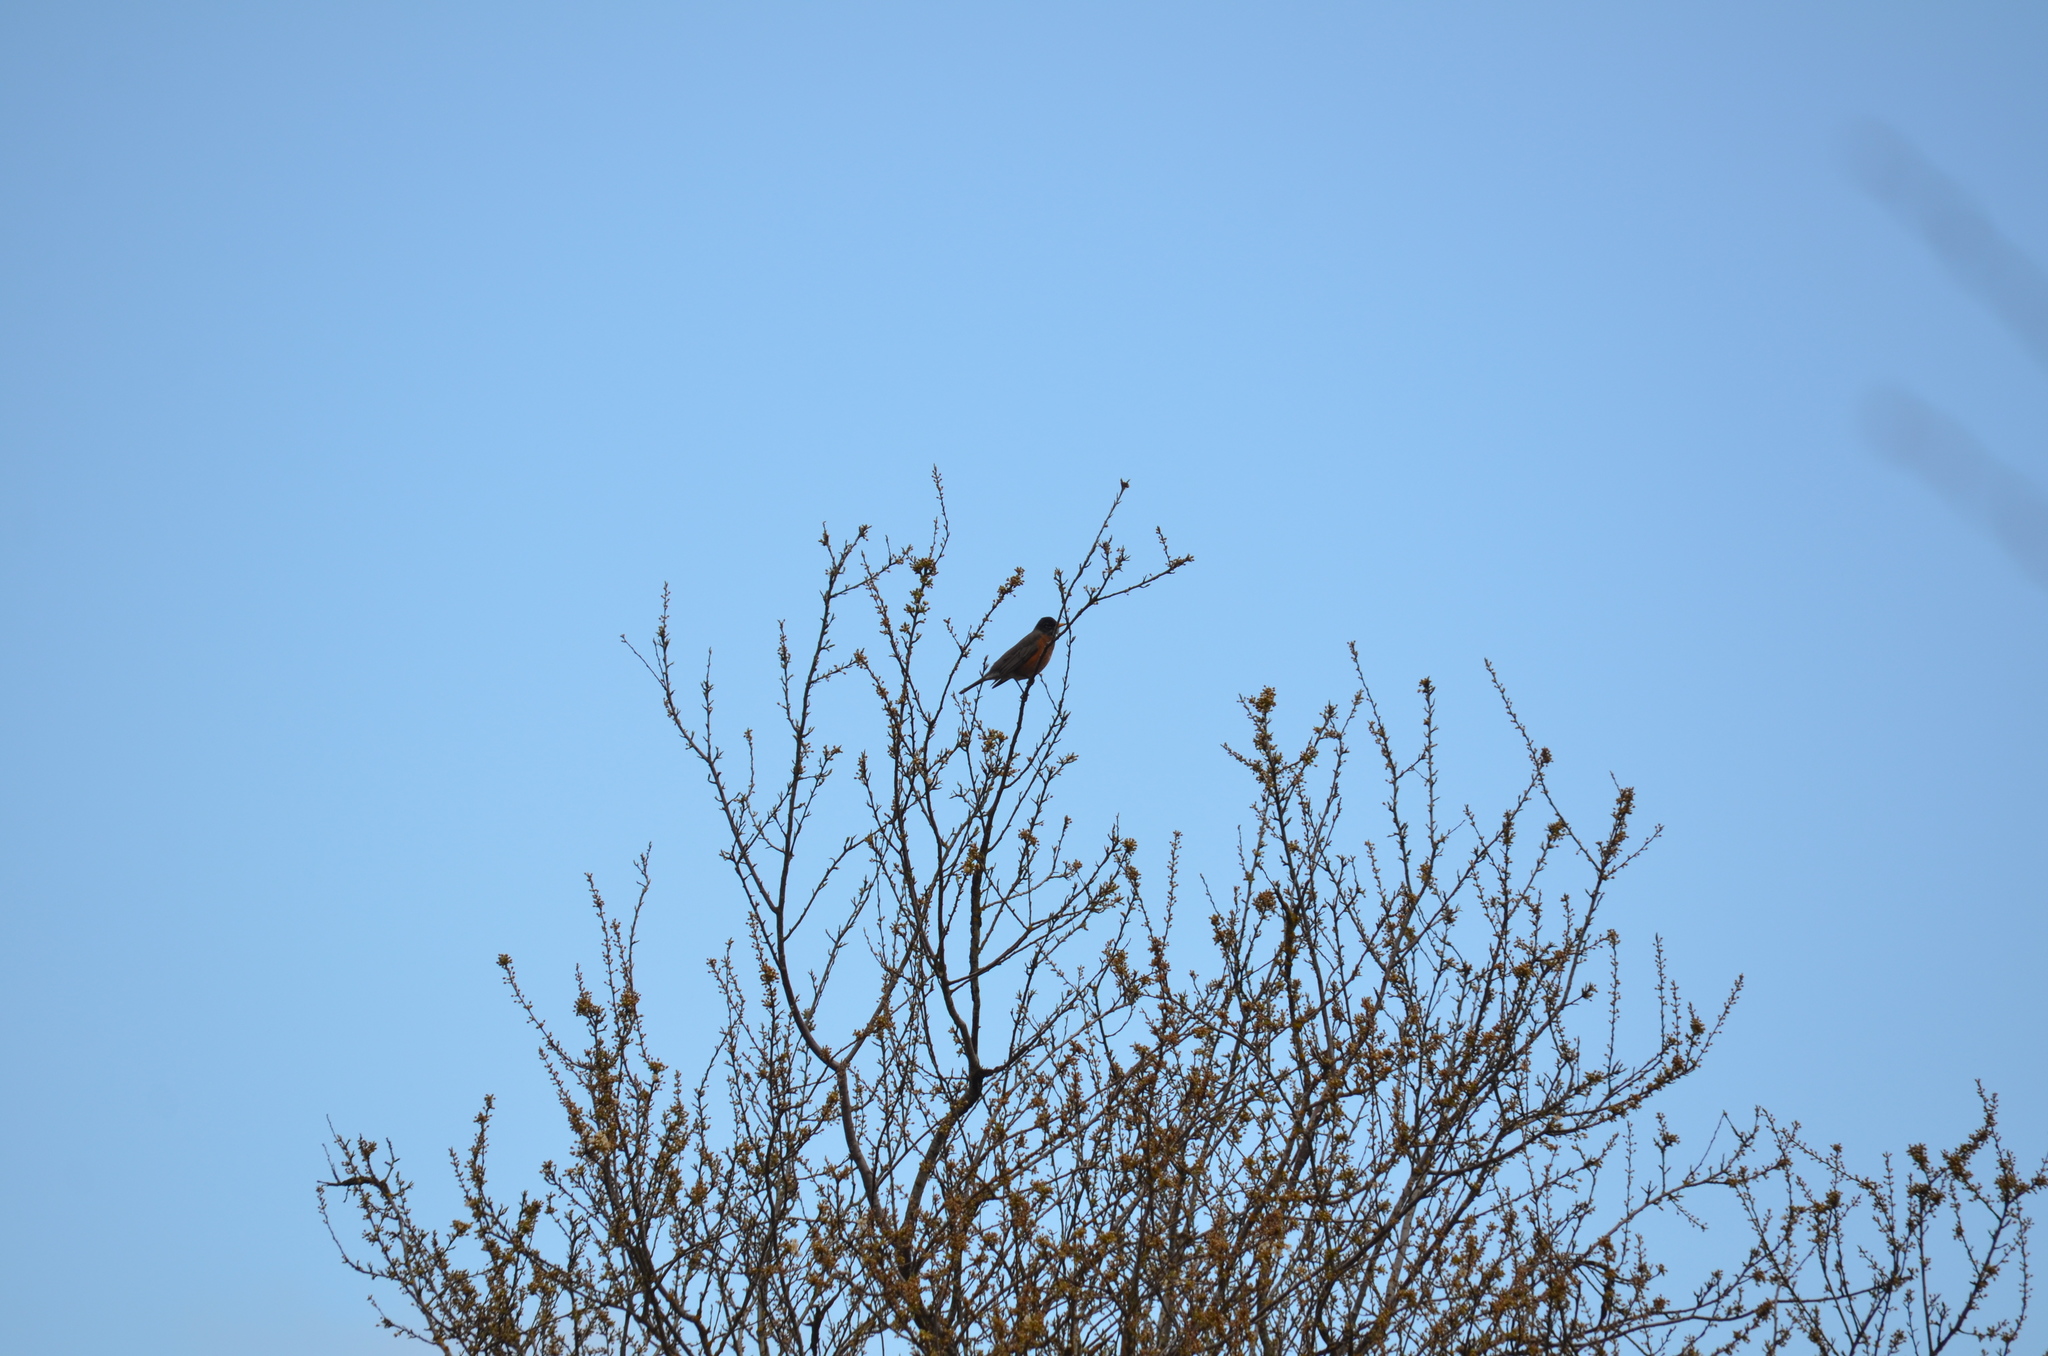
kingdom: Animalia
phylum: Chordata
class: Aves
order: Passeriformes
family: Turdidae
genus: Turdus
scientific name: Turdus migratorius
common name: American robin
